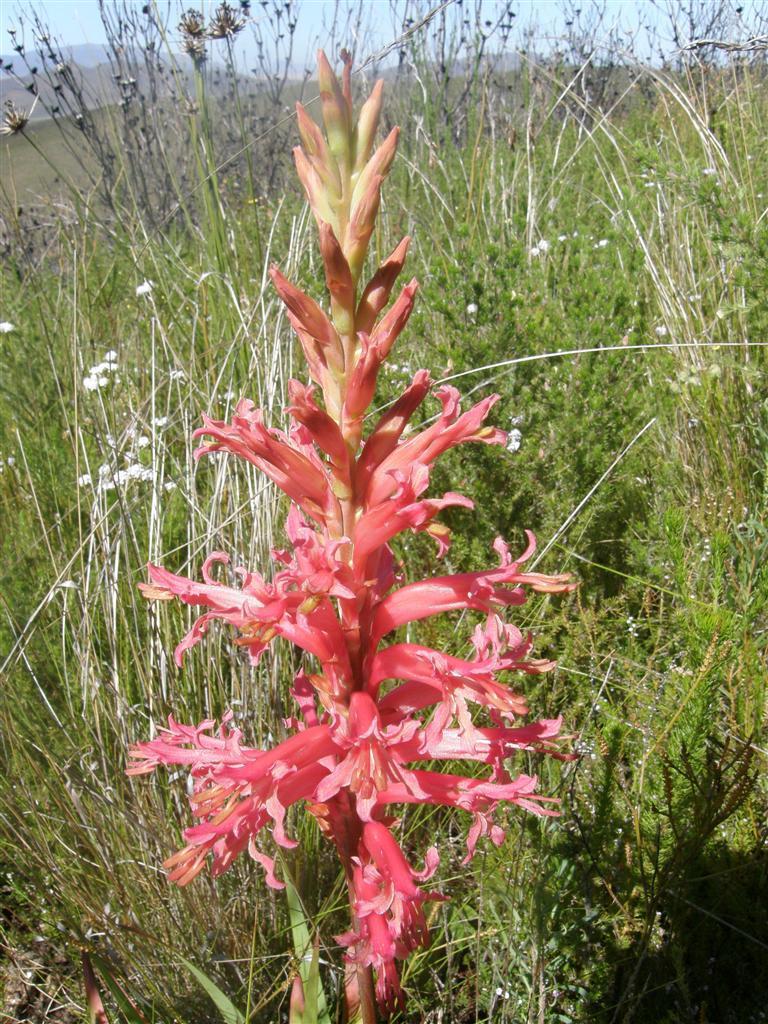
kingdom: Plantae
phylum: Tracheophyta
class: Liliopsida
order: Asparagales
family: Iridaceae
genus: Tritoniopsis
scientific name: Tritoniopsis antholyza
